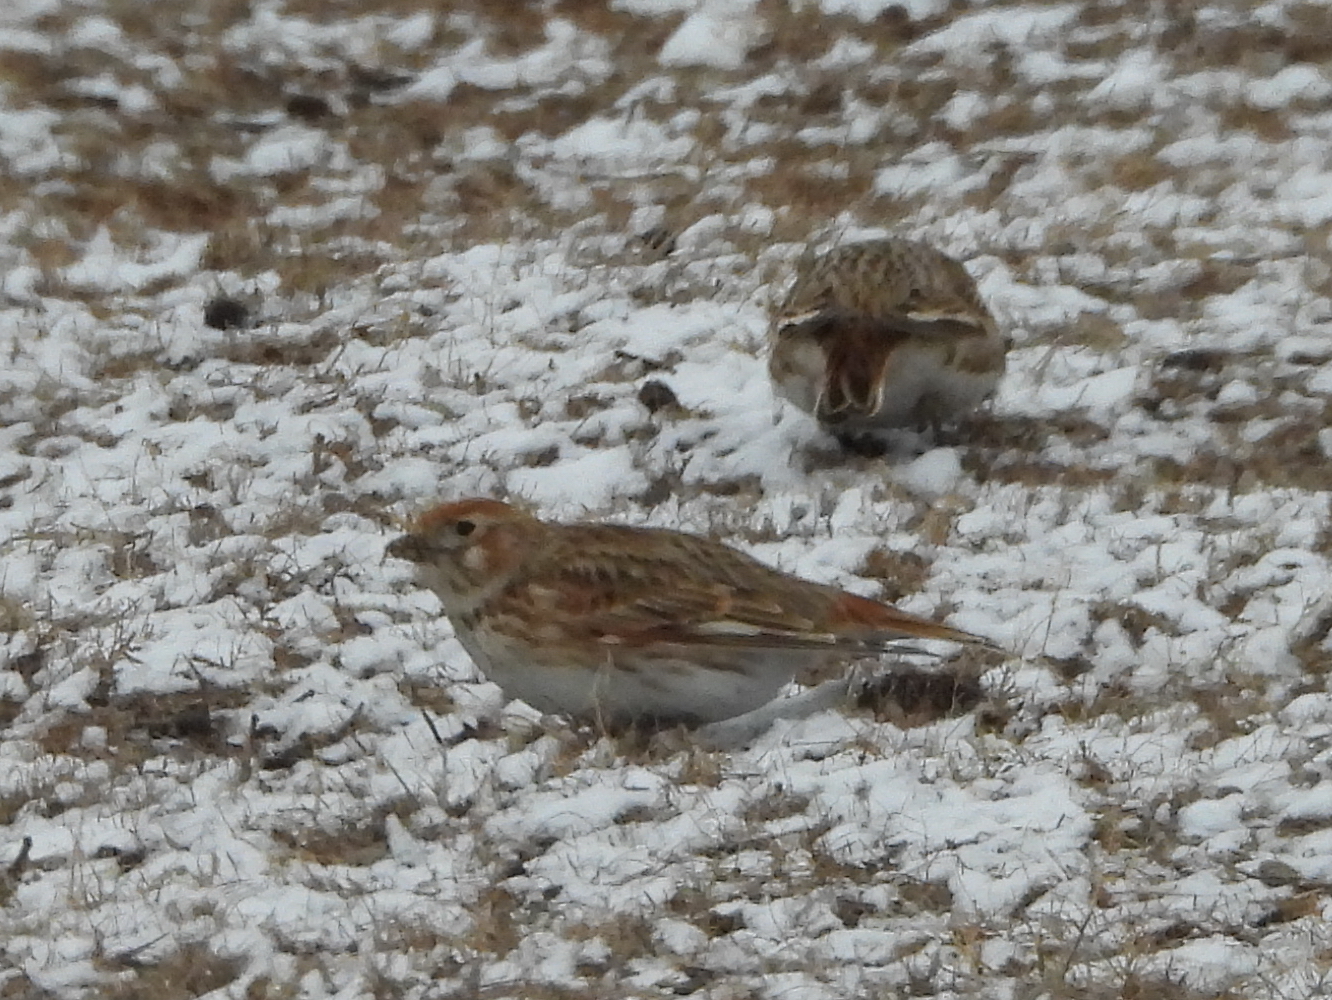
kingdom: Animalia
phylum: Chordata
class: Aves
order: Passeriformes
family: Alaudidae
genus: Melanocorypha
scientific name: Melanocorypha leucoptera
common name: White-winged lark
